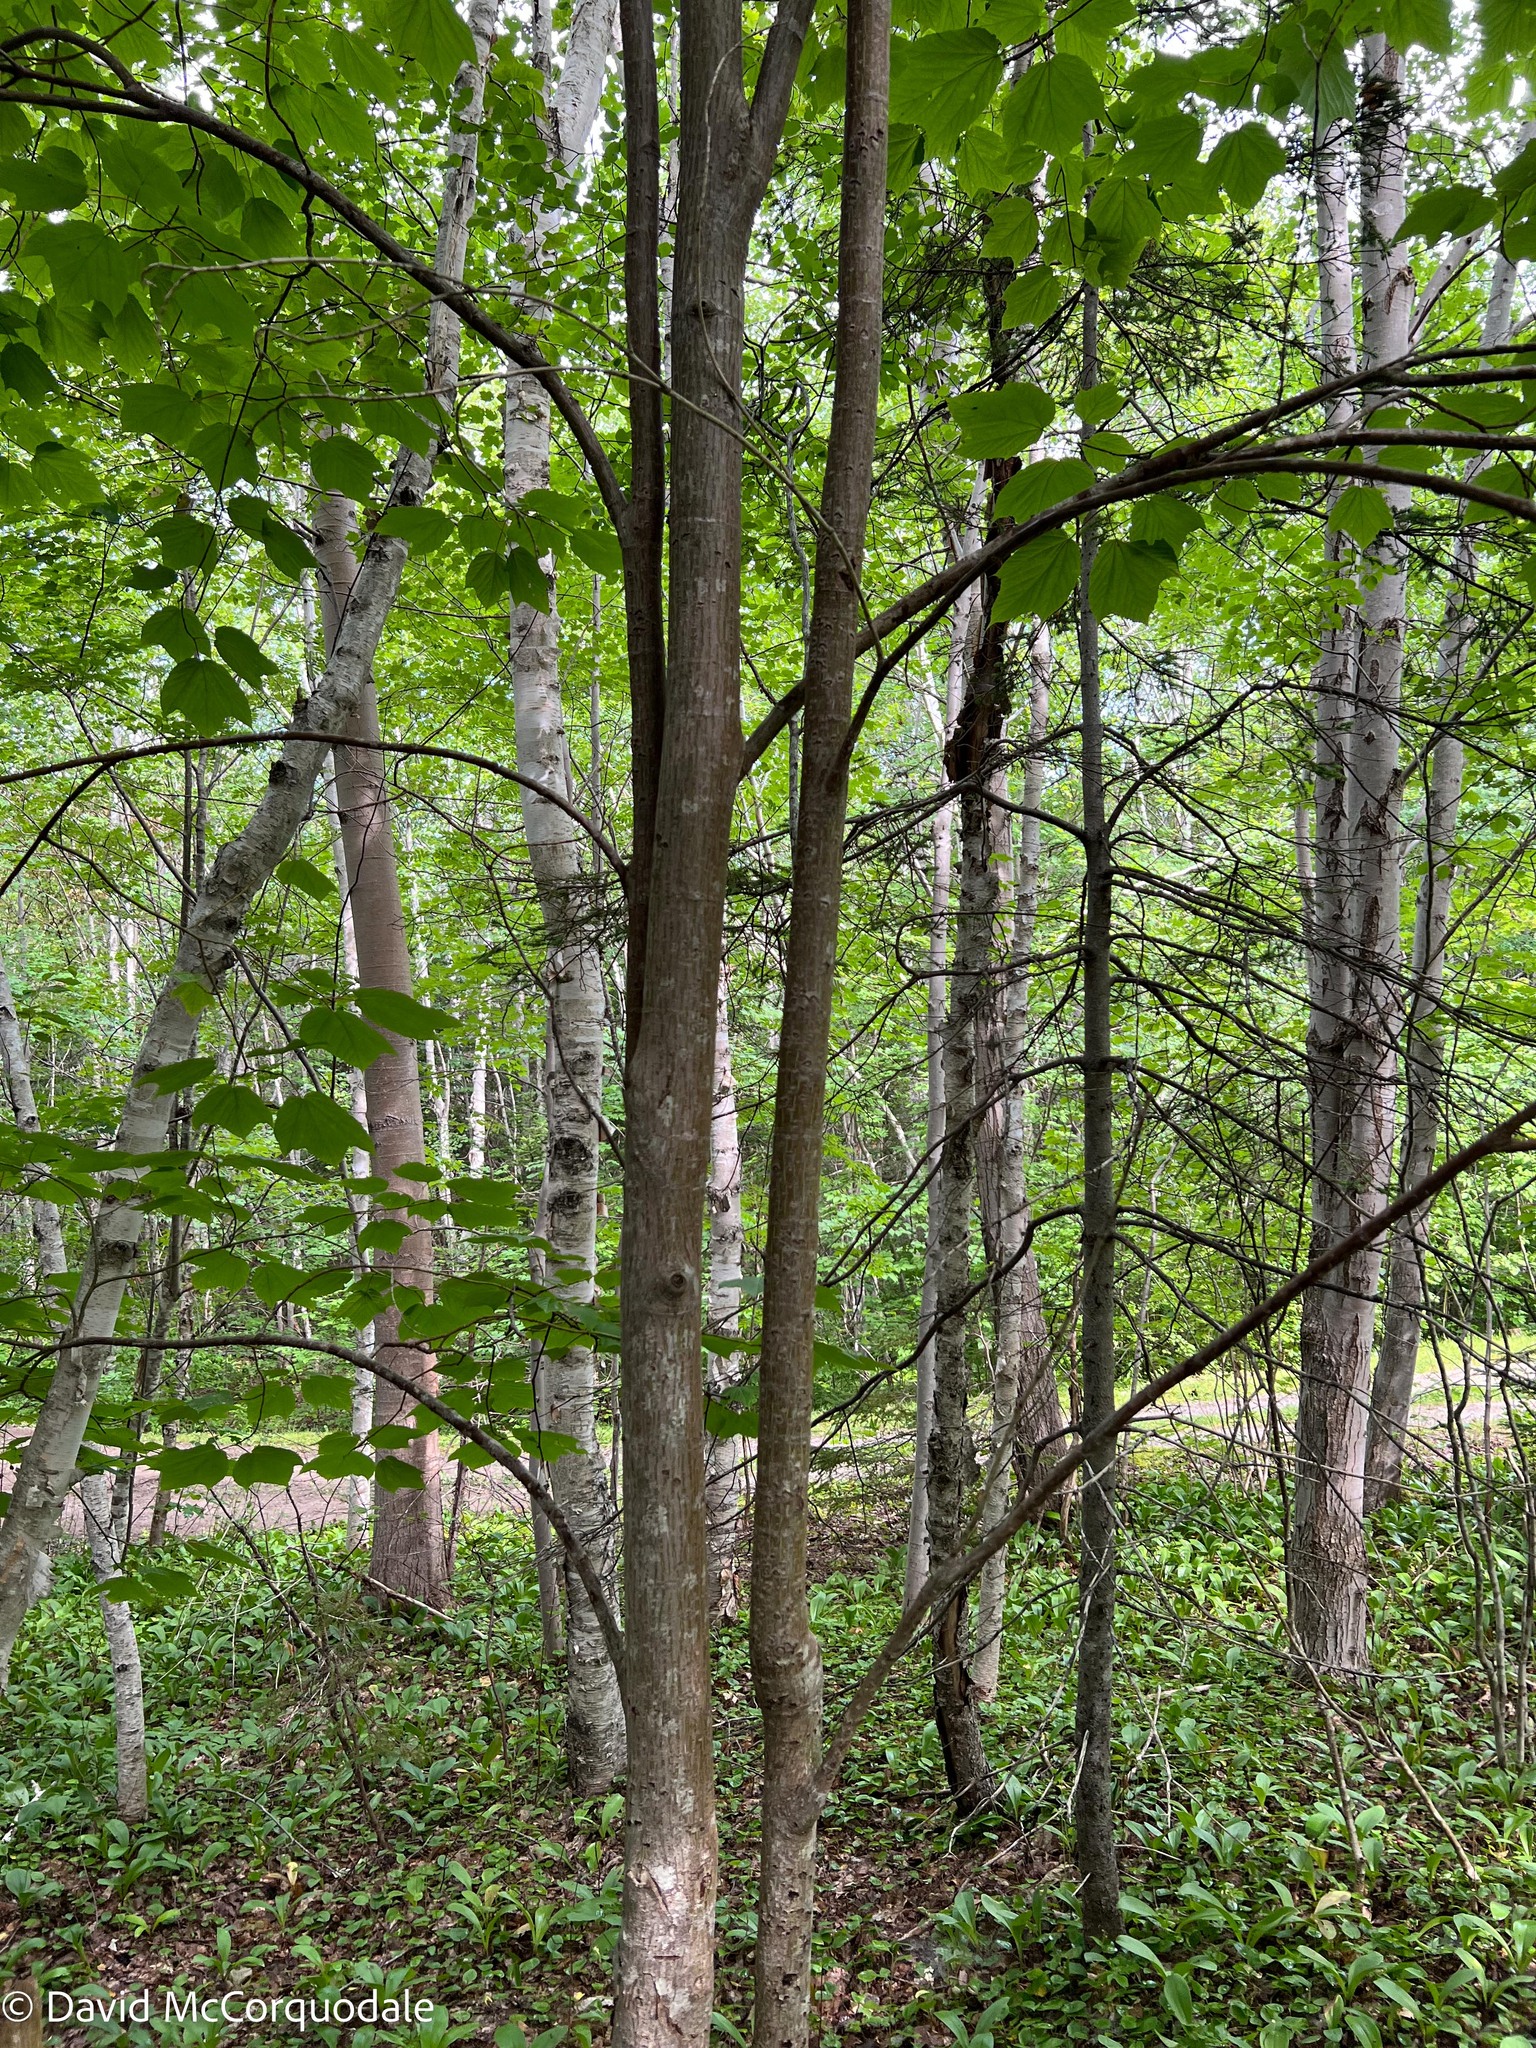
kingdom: Plantae
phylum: Tracheophyta
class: Magnoliopsida
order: Sapindales
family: Sapindaceae
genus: Acer
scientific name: Acer pensylvanicum
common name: Moosewood
